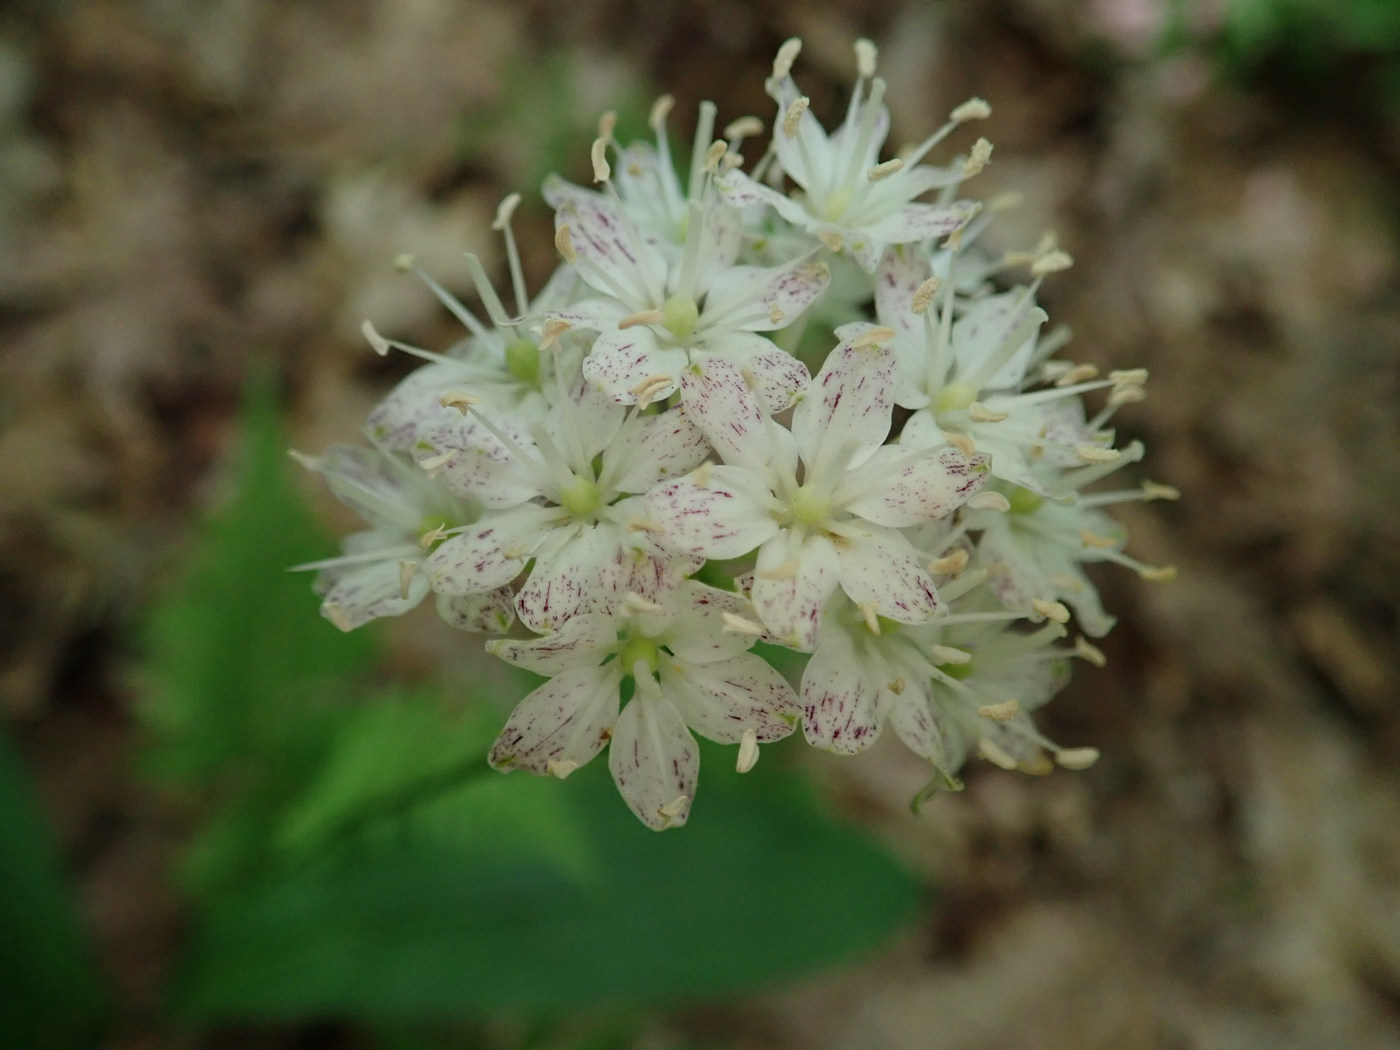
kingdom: Plantae
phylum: Tracheophyta
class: Liliopsida
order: Liliales
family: Liliaceae
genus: Clintonia
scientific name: Clintonia umbellulata
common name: Speckle wood-lily
